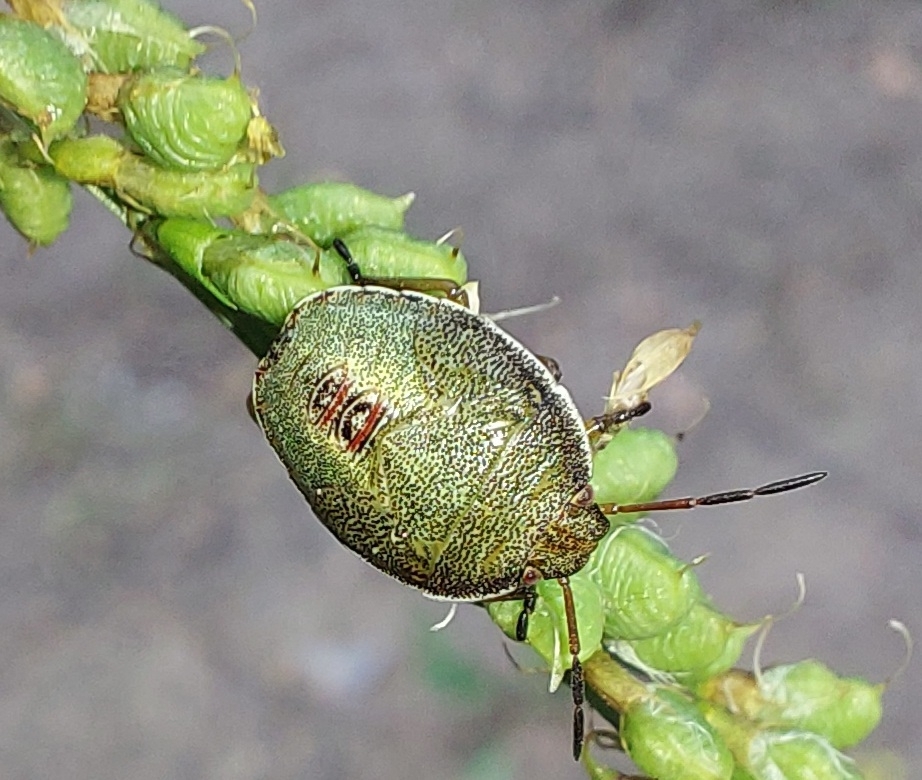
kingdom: Animalia
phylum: Arthropoda
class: Insecta
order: Hemiptera
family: Pentatomidae
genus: Piezodorus
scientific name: Piezodorus lituratus
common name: Stink bug
